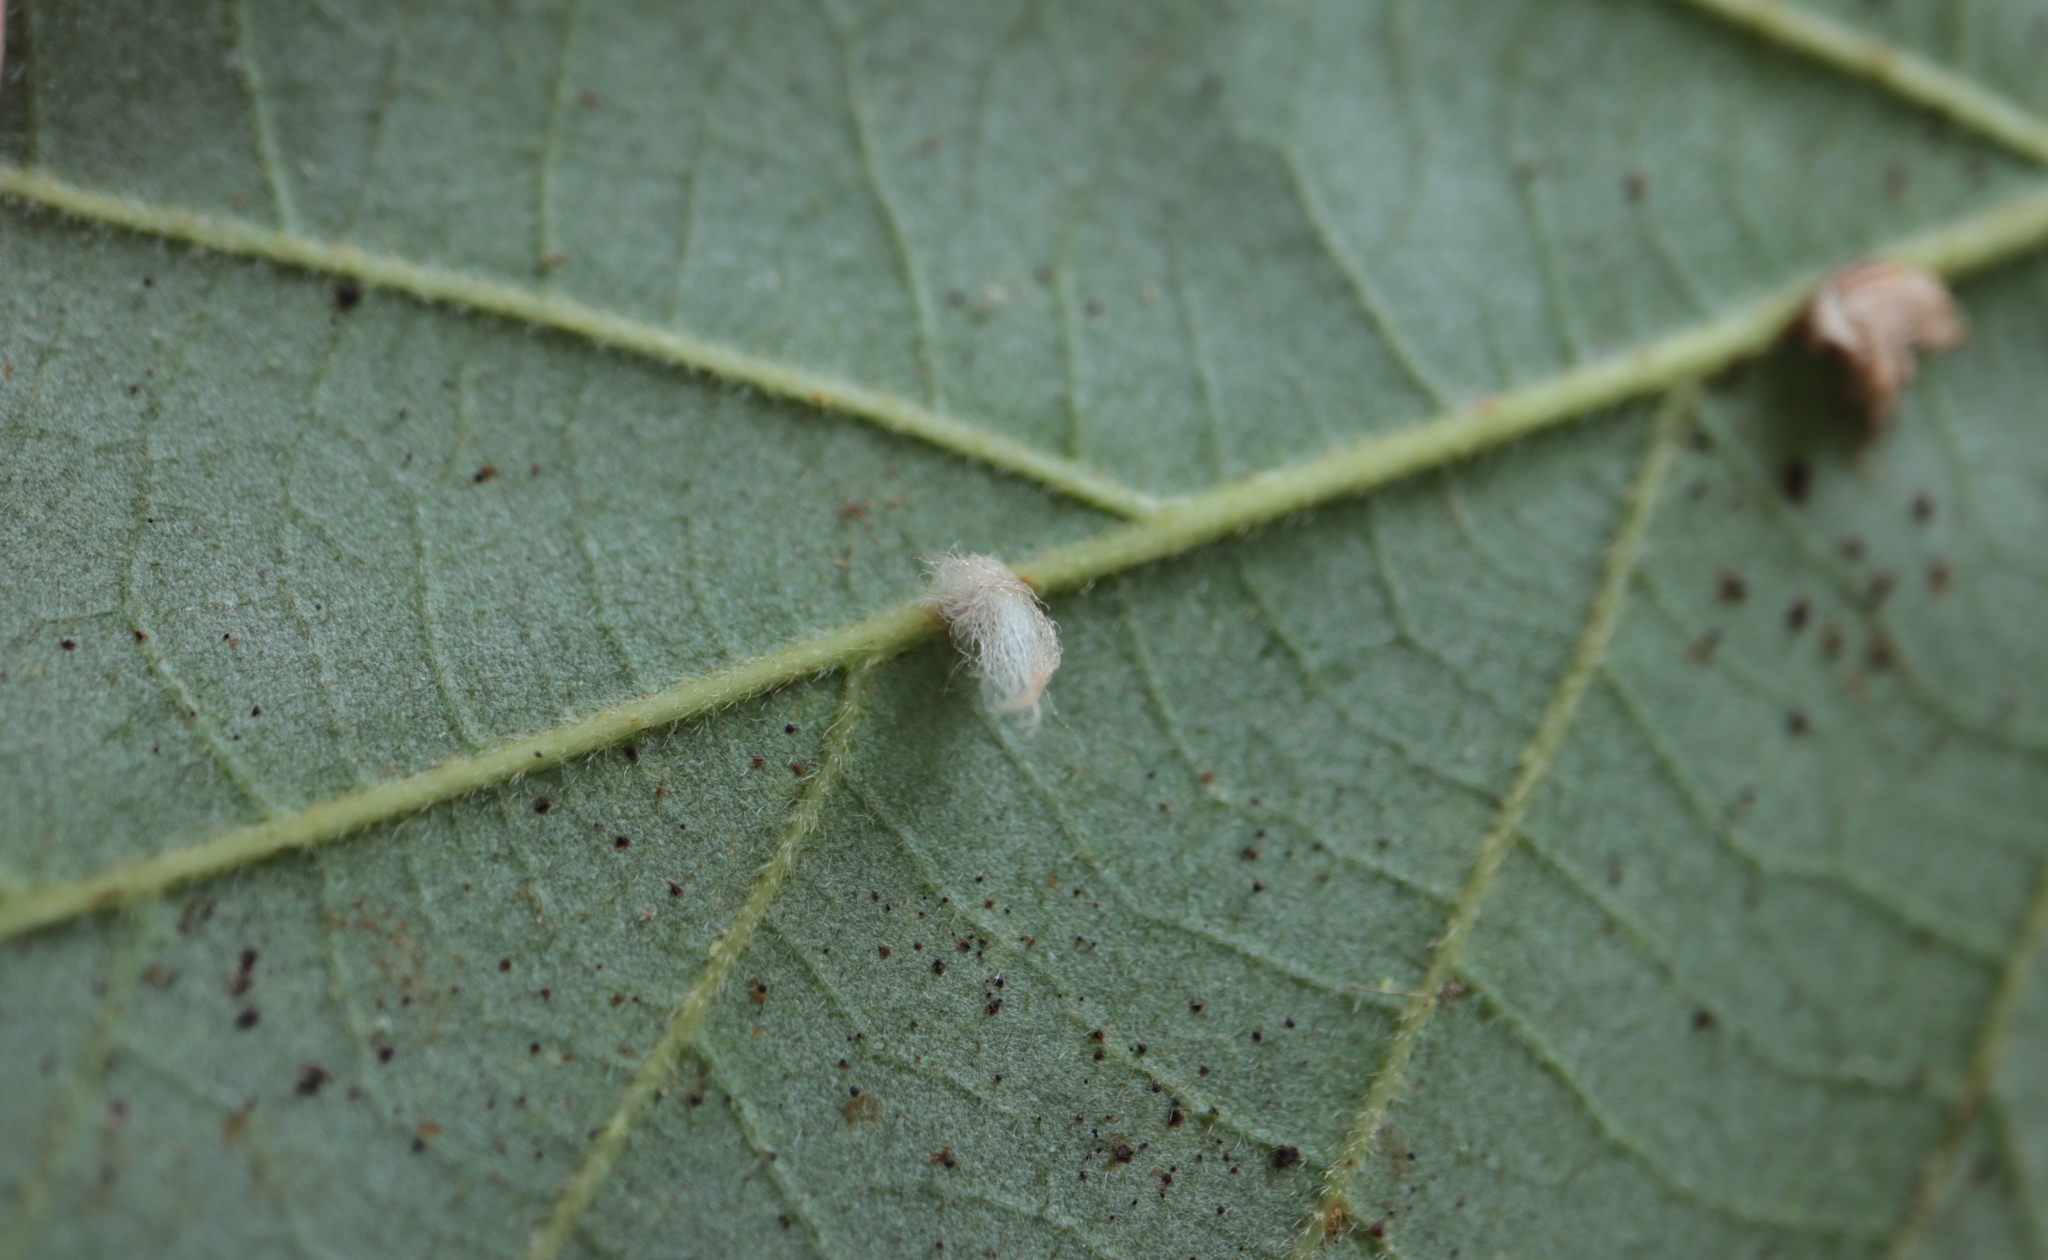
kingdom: Animalia
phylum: Arthropoda
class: Insecta
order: Hymenoptera
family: Cynipidae
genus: Andricus
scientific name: Andricus Druon ignotum
